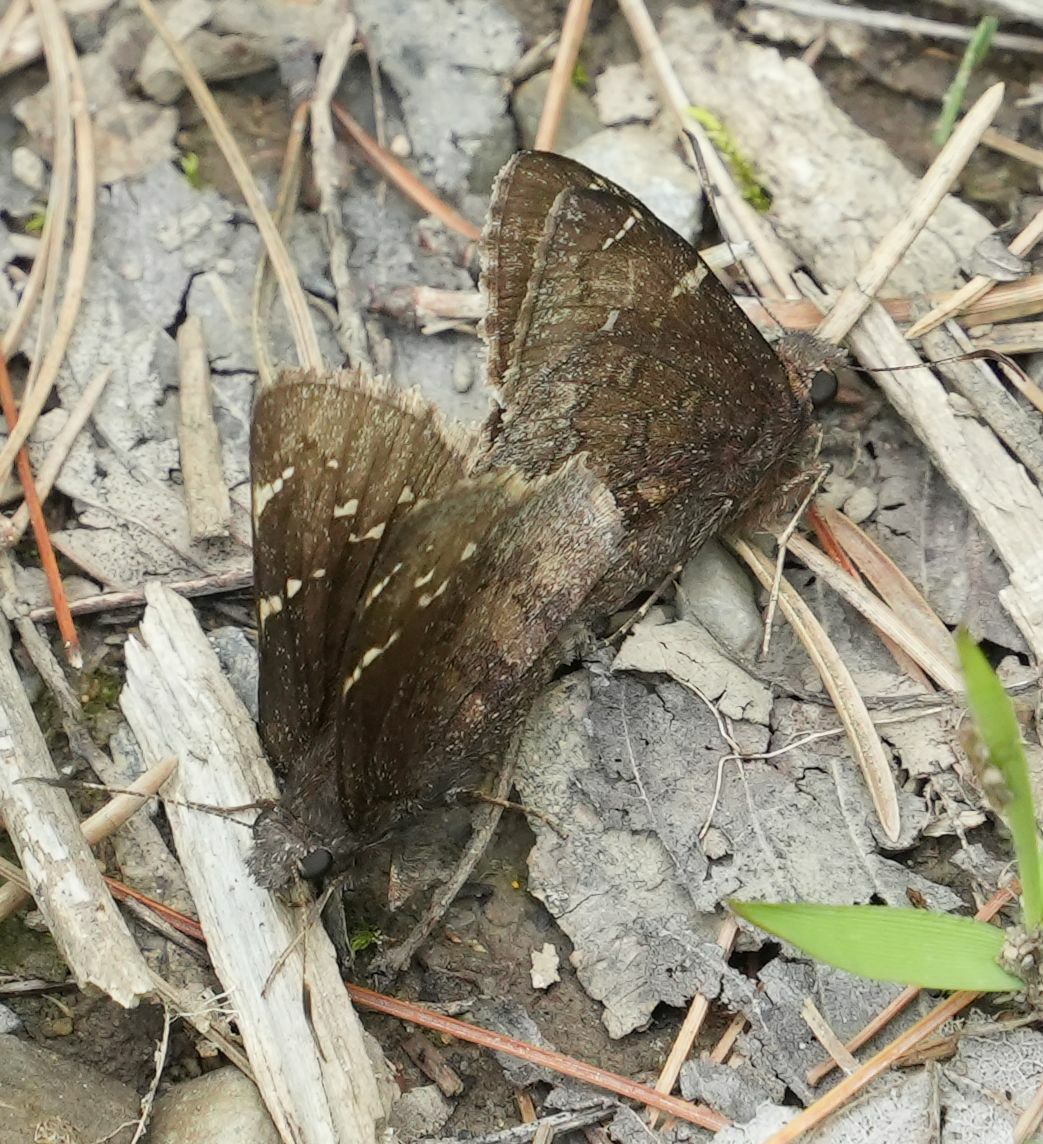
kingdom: Animalia
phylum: Arthropoda
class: Insecta
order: Lepidoptera
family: Hesperiidae
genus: Thorybes
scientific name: Thorybes pylades
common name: Northern cloudywing
